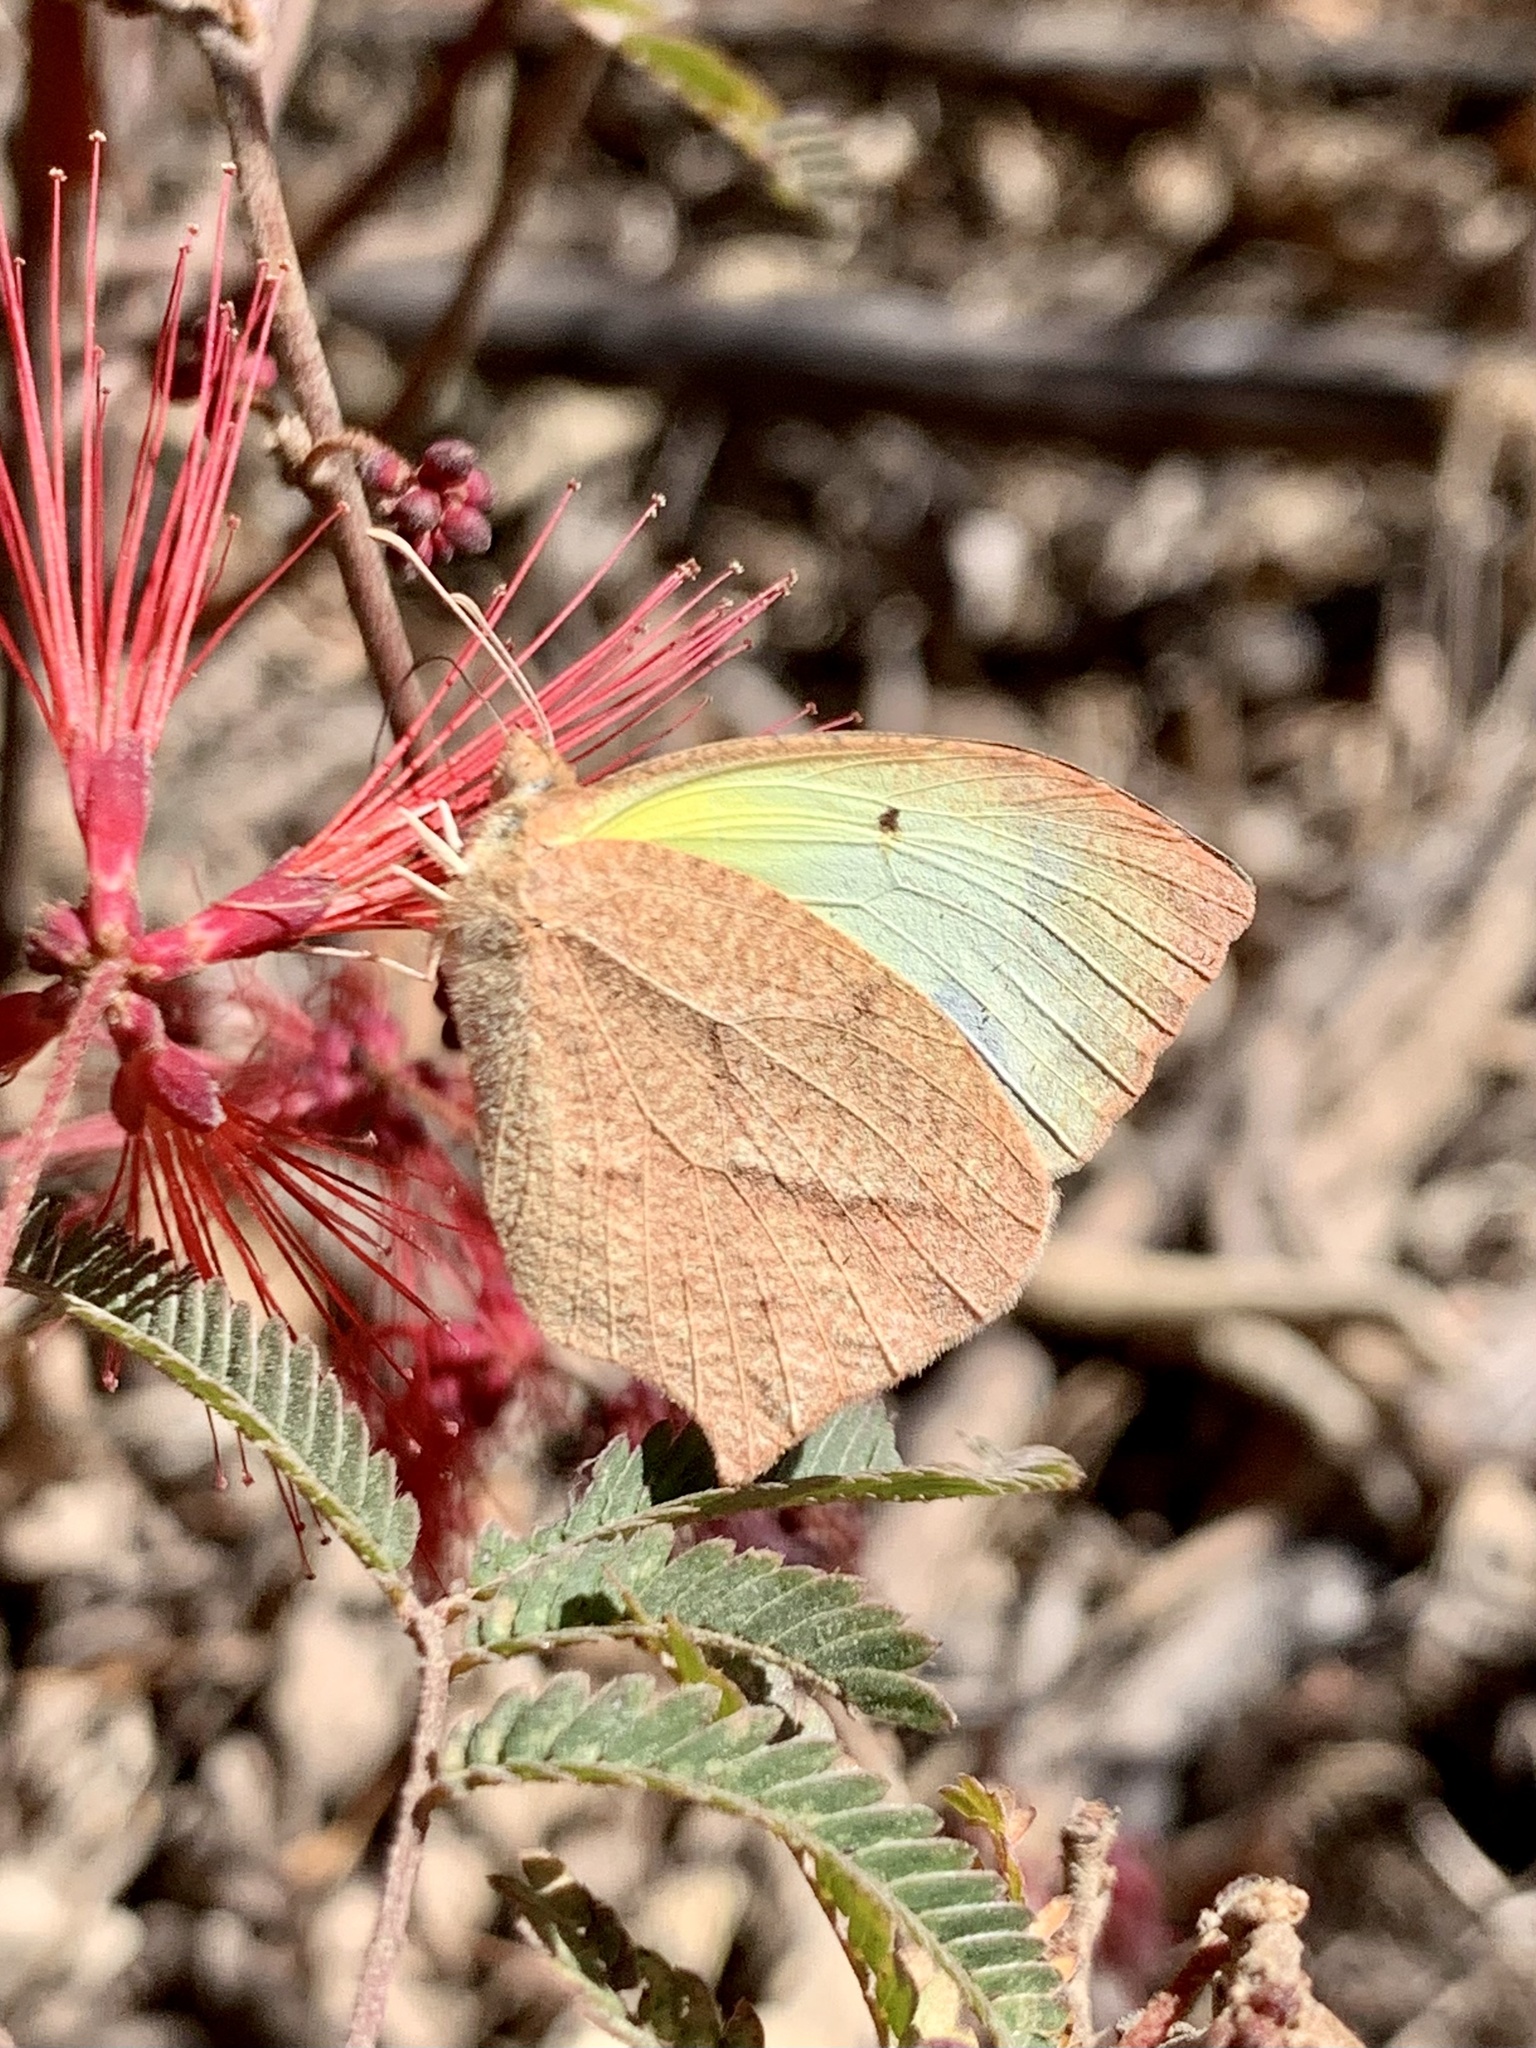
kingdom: Animalia
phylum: Arthropoda
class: Insecta
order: Lepidoptera
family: Pieridae
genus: Abaeis
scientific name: Abaeis mexicana
